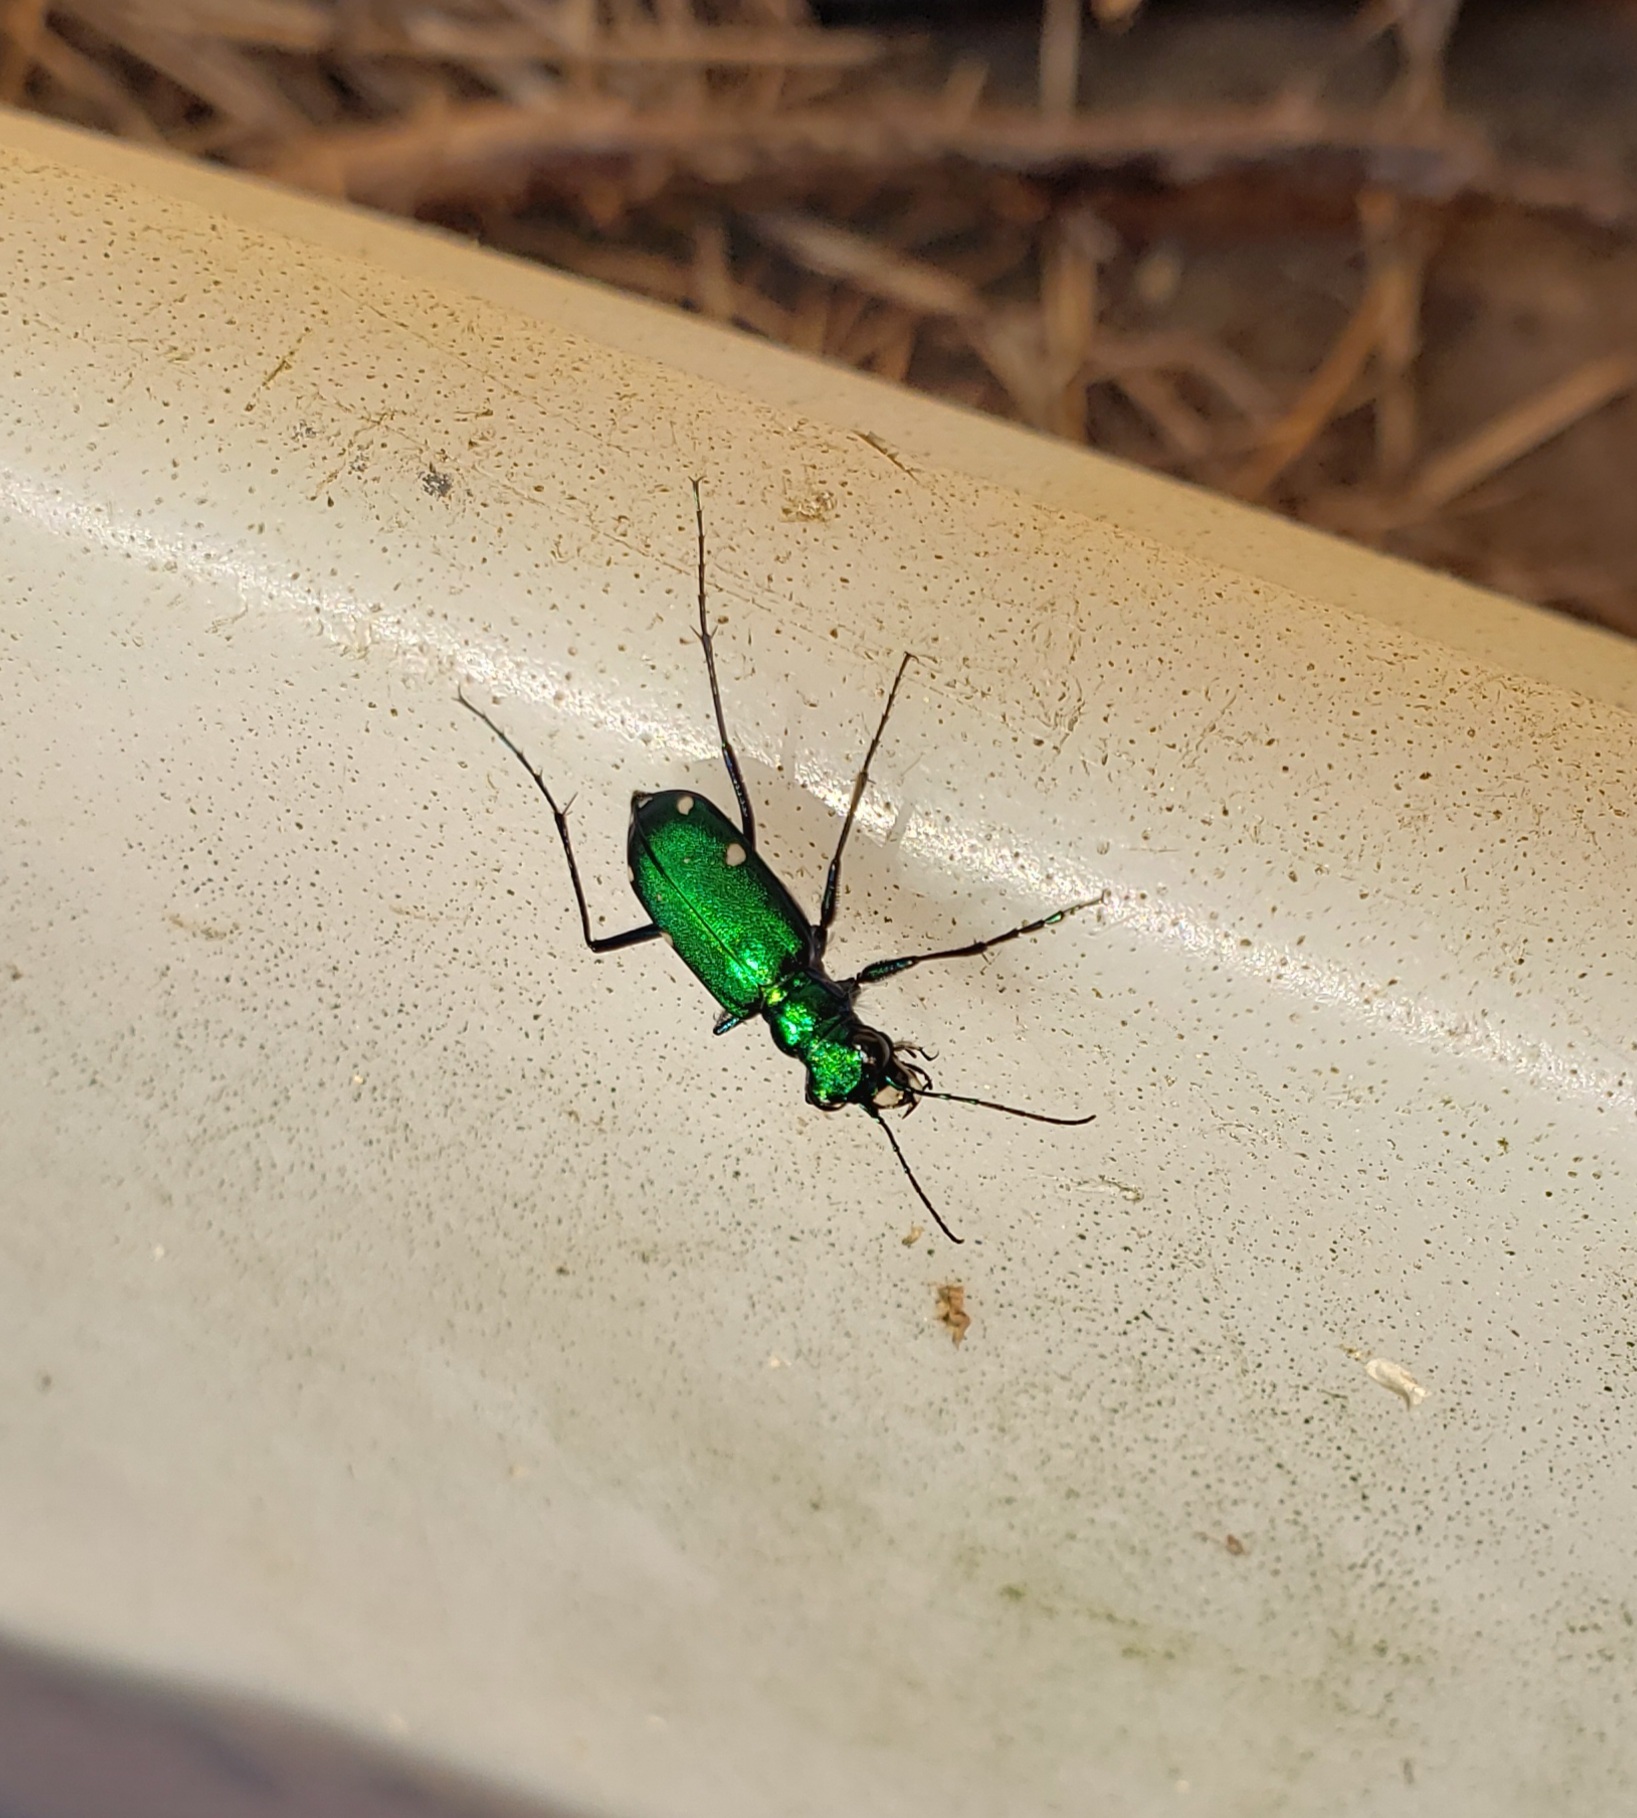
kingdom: Animalia
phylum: Arthropoda
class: Insecta
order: Coleoptera
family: Carabidae
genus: Cicindela
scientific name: Cicindela sexguttata
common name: Six-spotted tiger beetle
